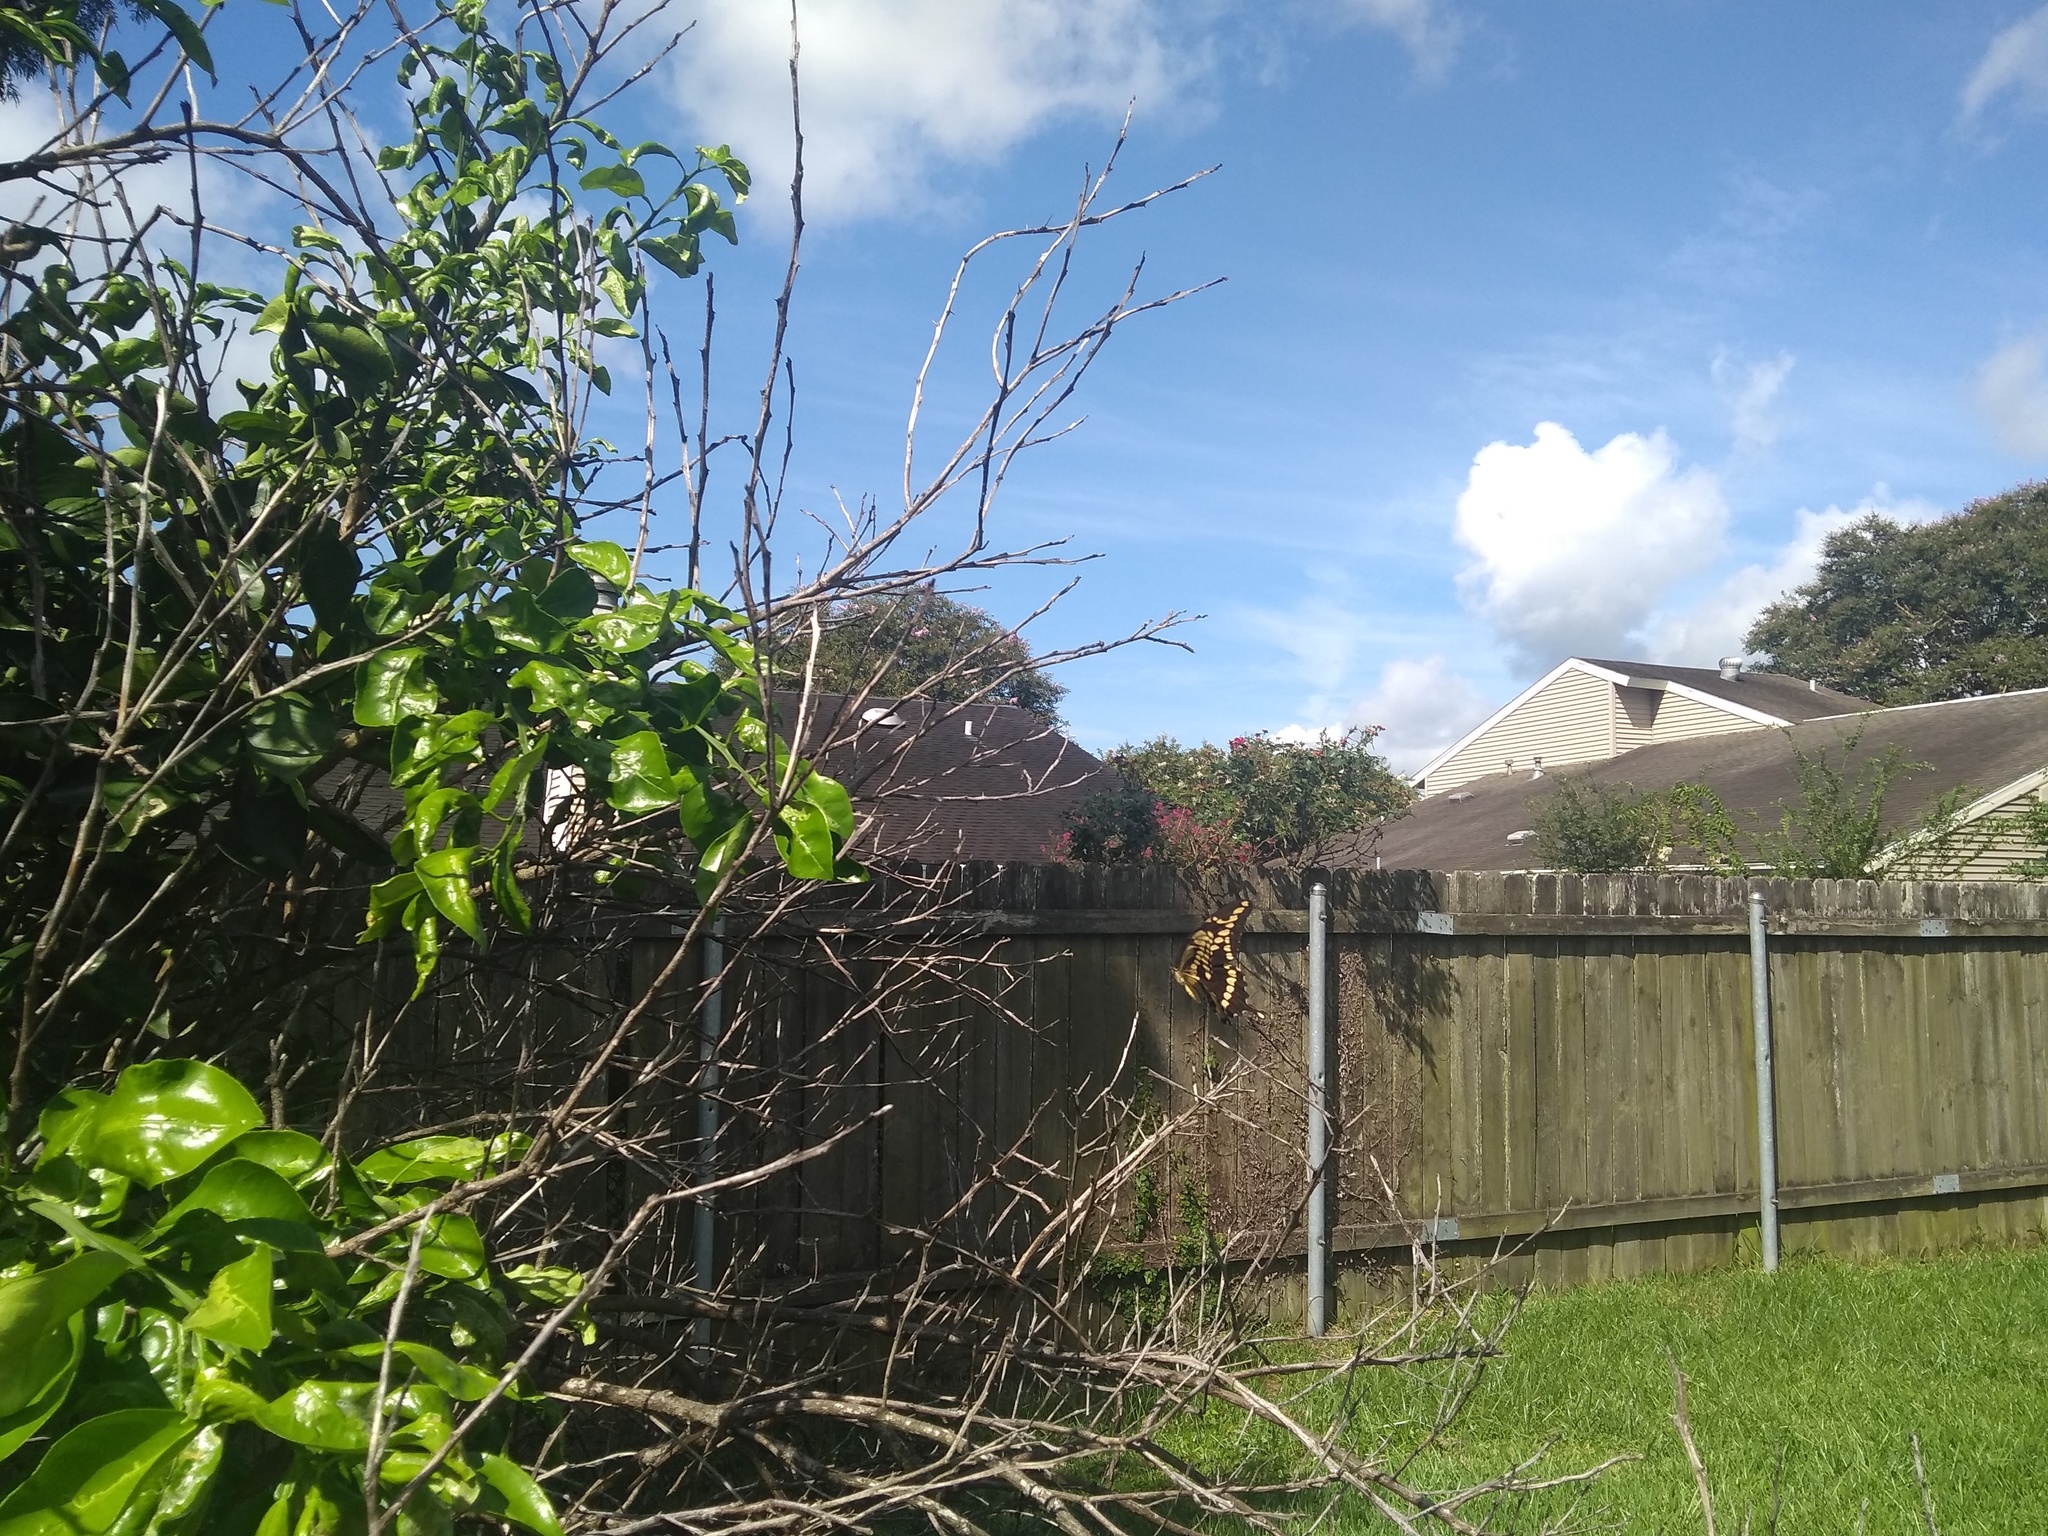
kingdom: Animalia
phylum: Arthropoda
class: Insecta
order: Lepidoptera
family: Papilionidae
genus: Papilio
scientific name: Papilio cresphontes
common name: Giant swallowtail
